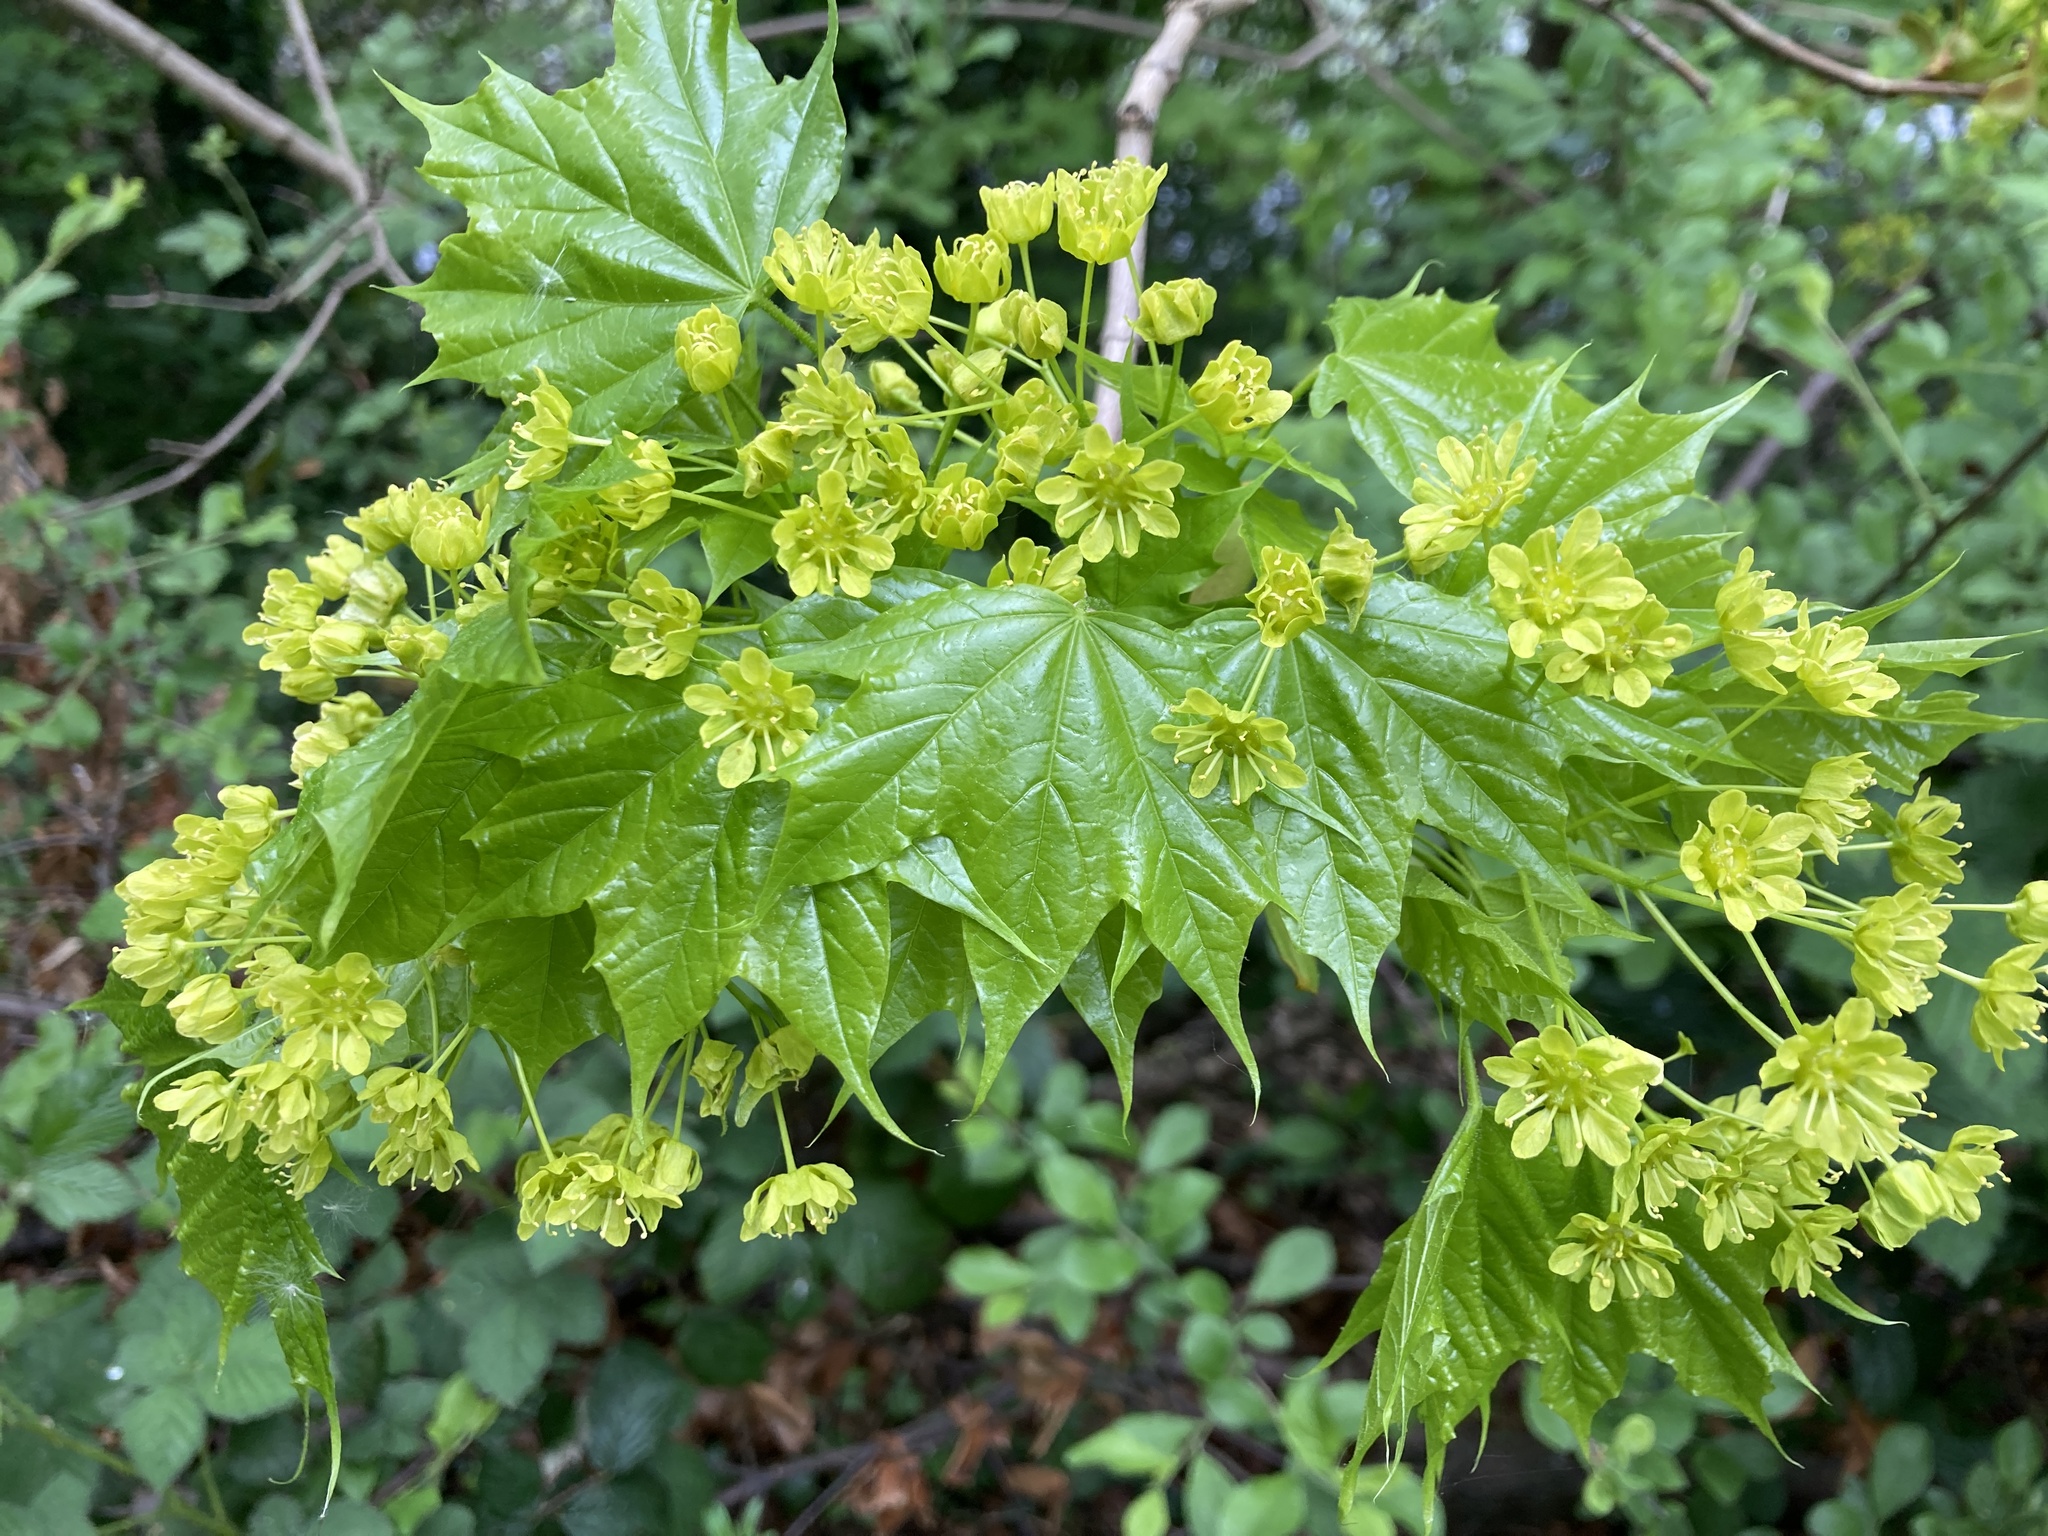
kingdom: Plantae
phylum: Tracheophyta
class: Magnoliopsida
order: Sapindales
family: Sapindaceae
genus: Acer
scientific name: Acer platanoides
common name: Norway maple
